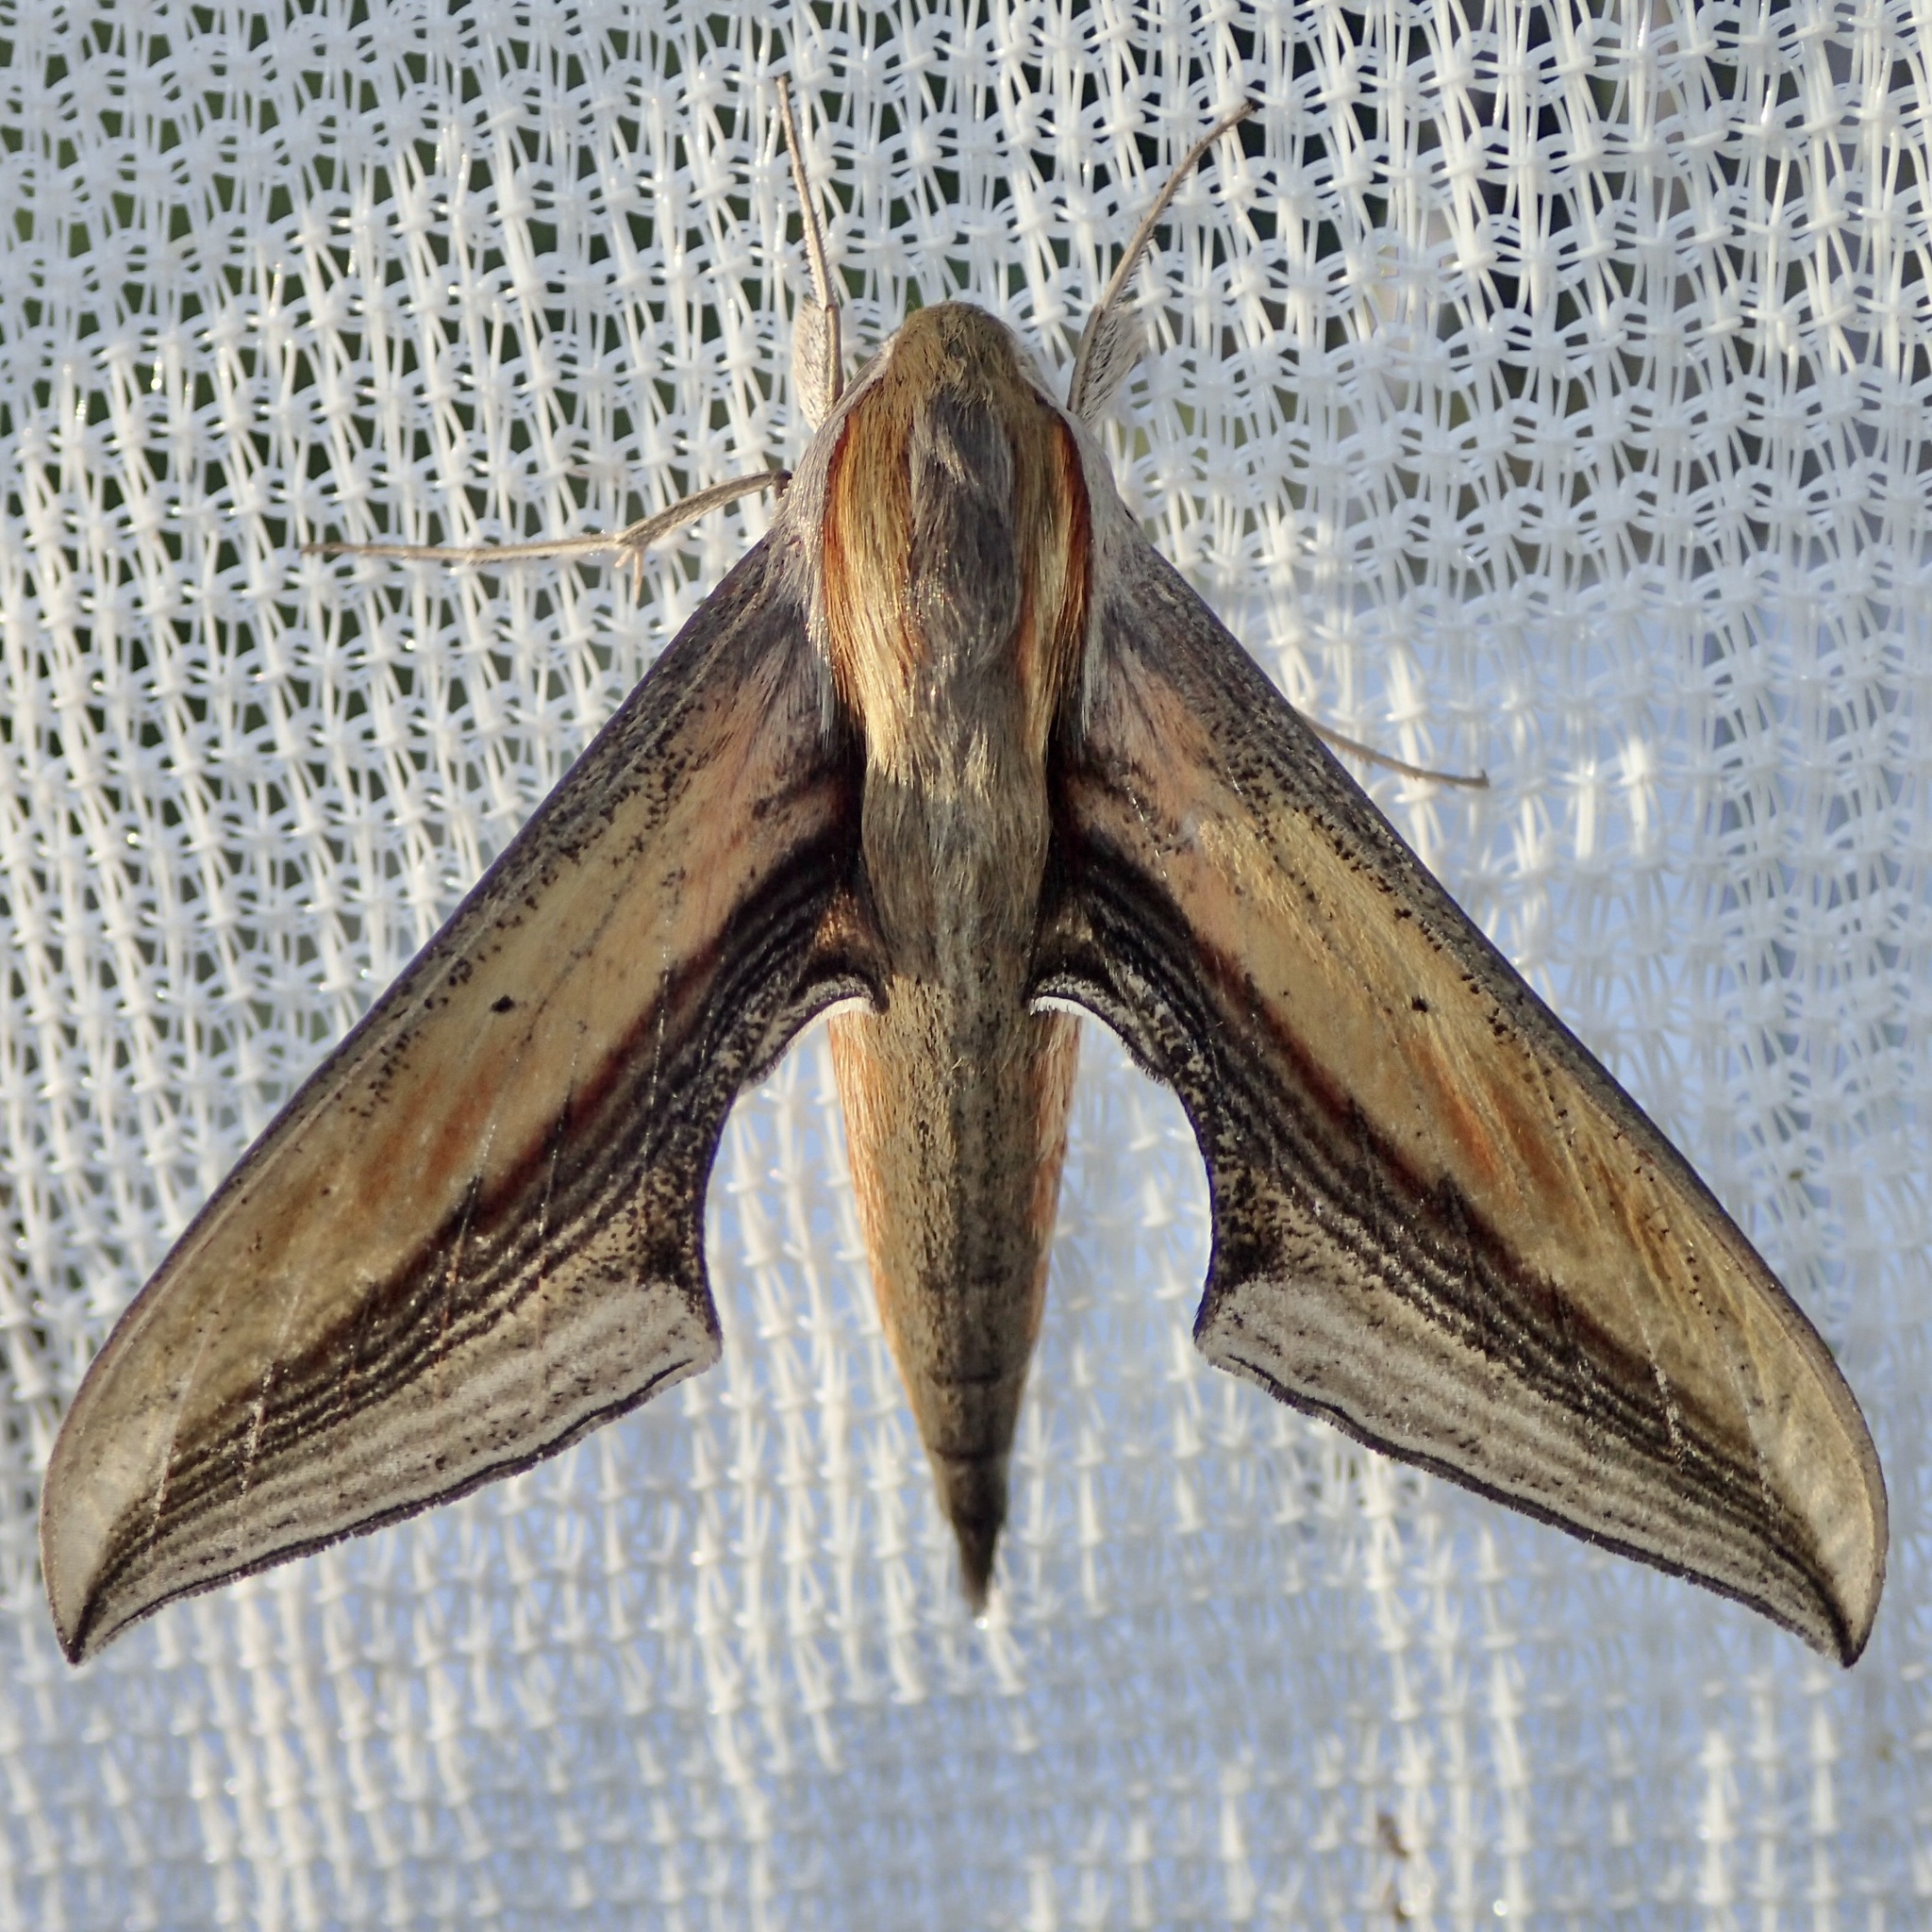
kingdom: Animalia
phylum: Arthropoda
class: Insecta
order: Lepidoptera
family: Sphingidae
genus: Xylophanes
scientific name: Xylophanes falco
